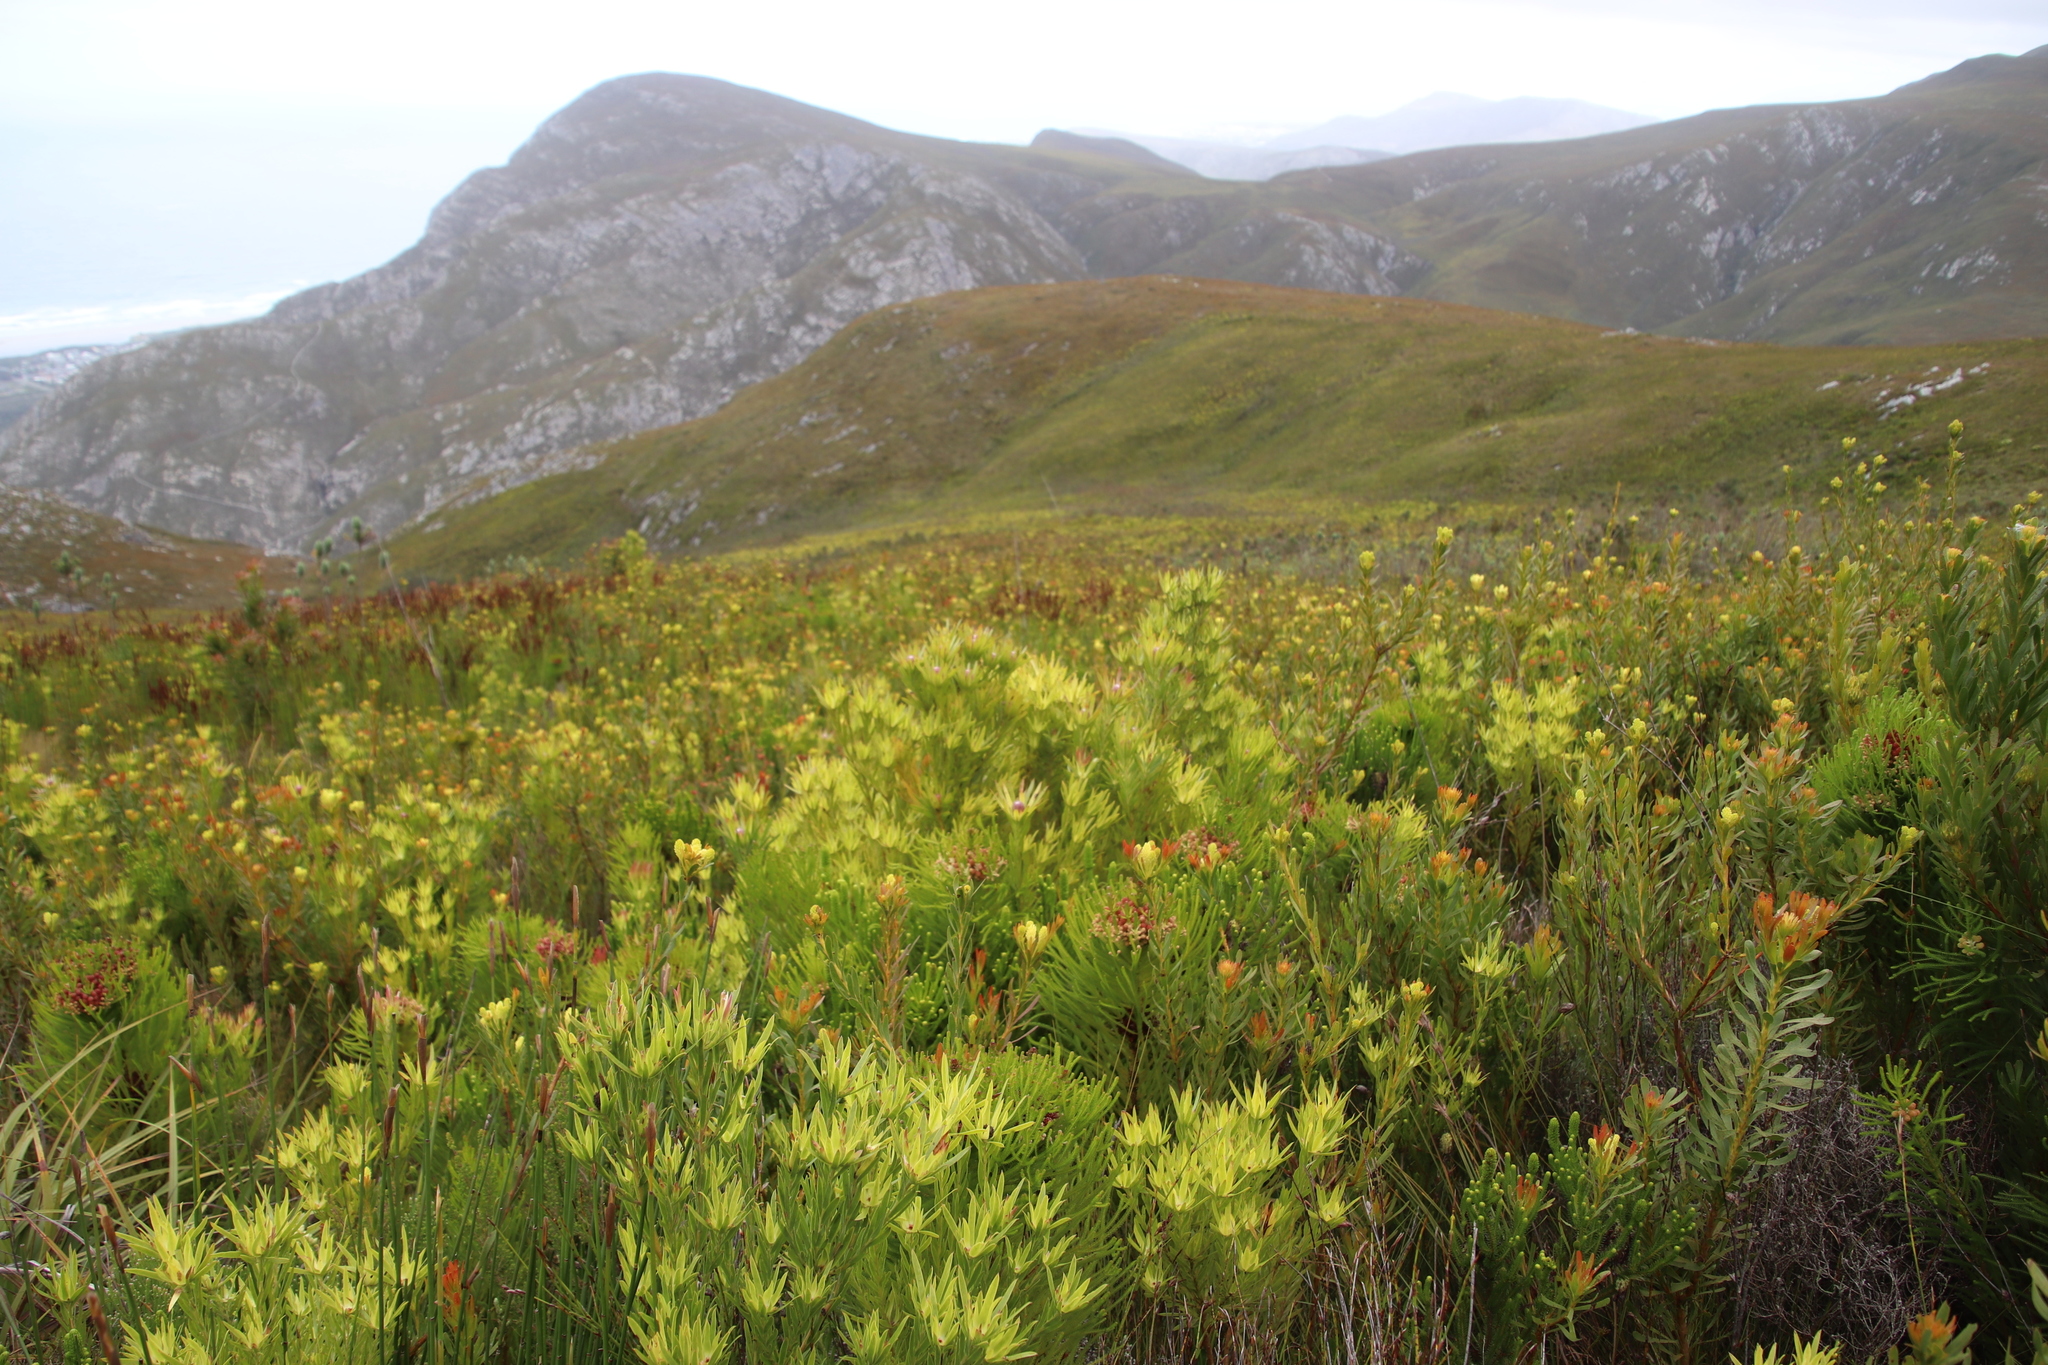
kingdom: Plantae
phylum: Tracheophyta
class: Magnoliopsida
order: Proteales
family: Proteaceae
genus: Leucadendron
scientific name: Leucadendron xanthoconus
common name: Sickle-leaf conebush
